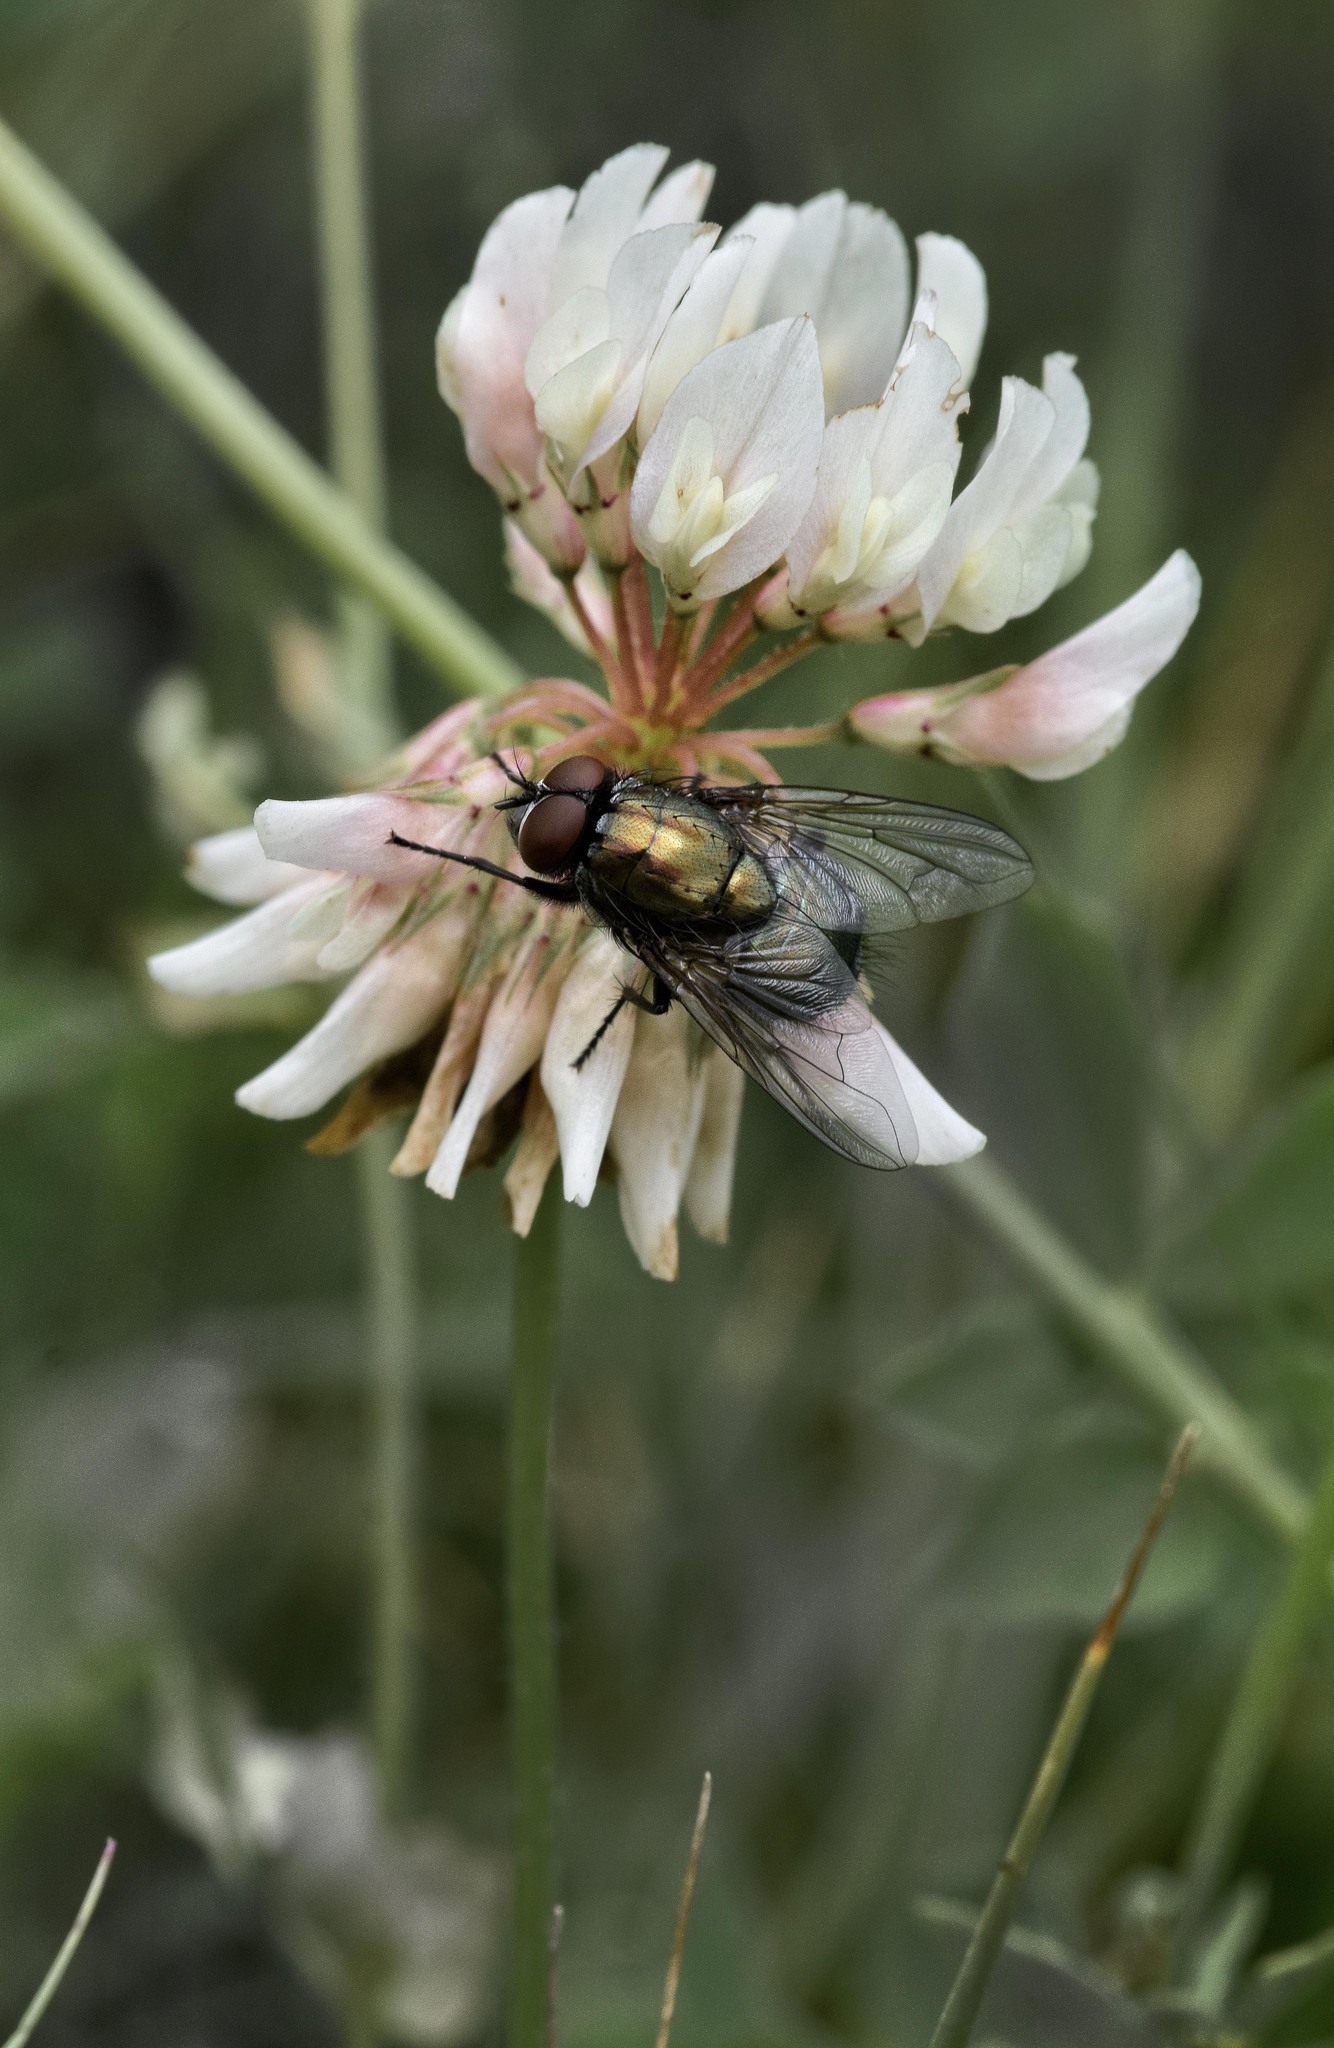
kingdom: Animalia
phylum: Arthropoda
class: Insecta
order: Diptera
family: Muscidae
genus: Dasyphora
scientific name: Dasyphora cyanella
